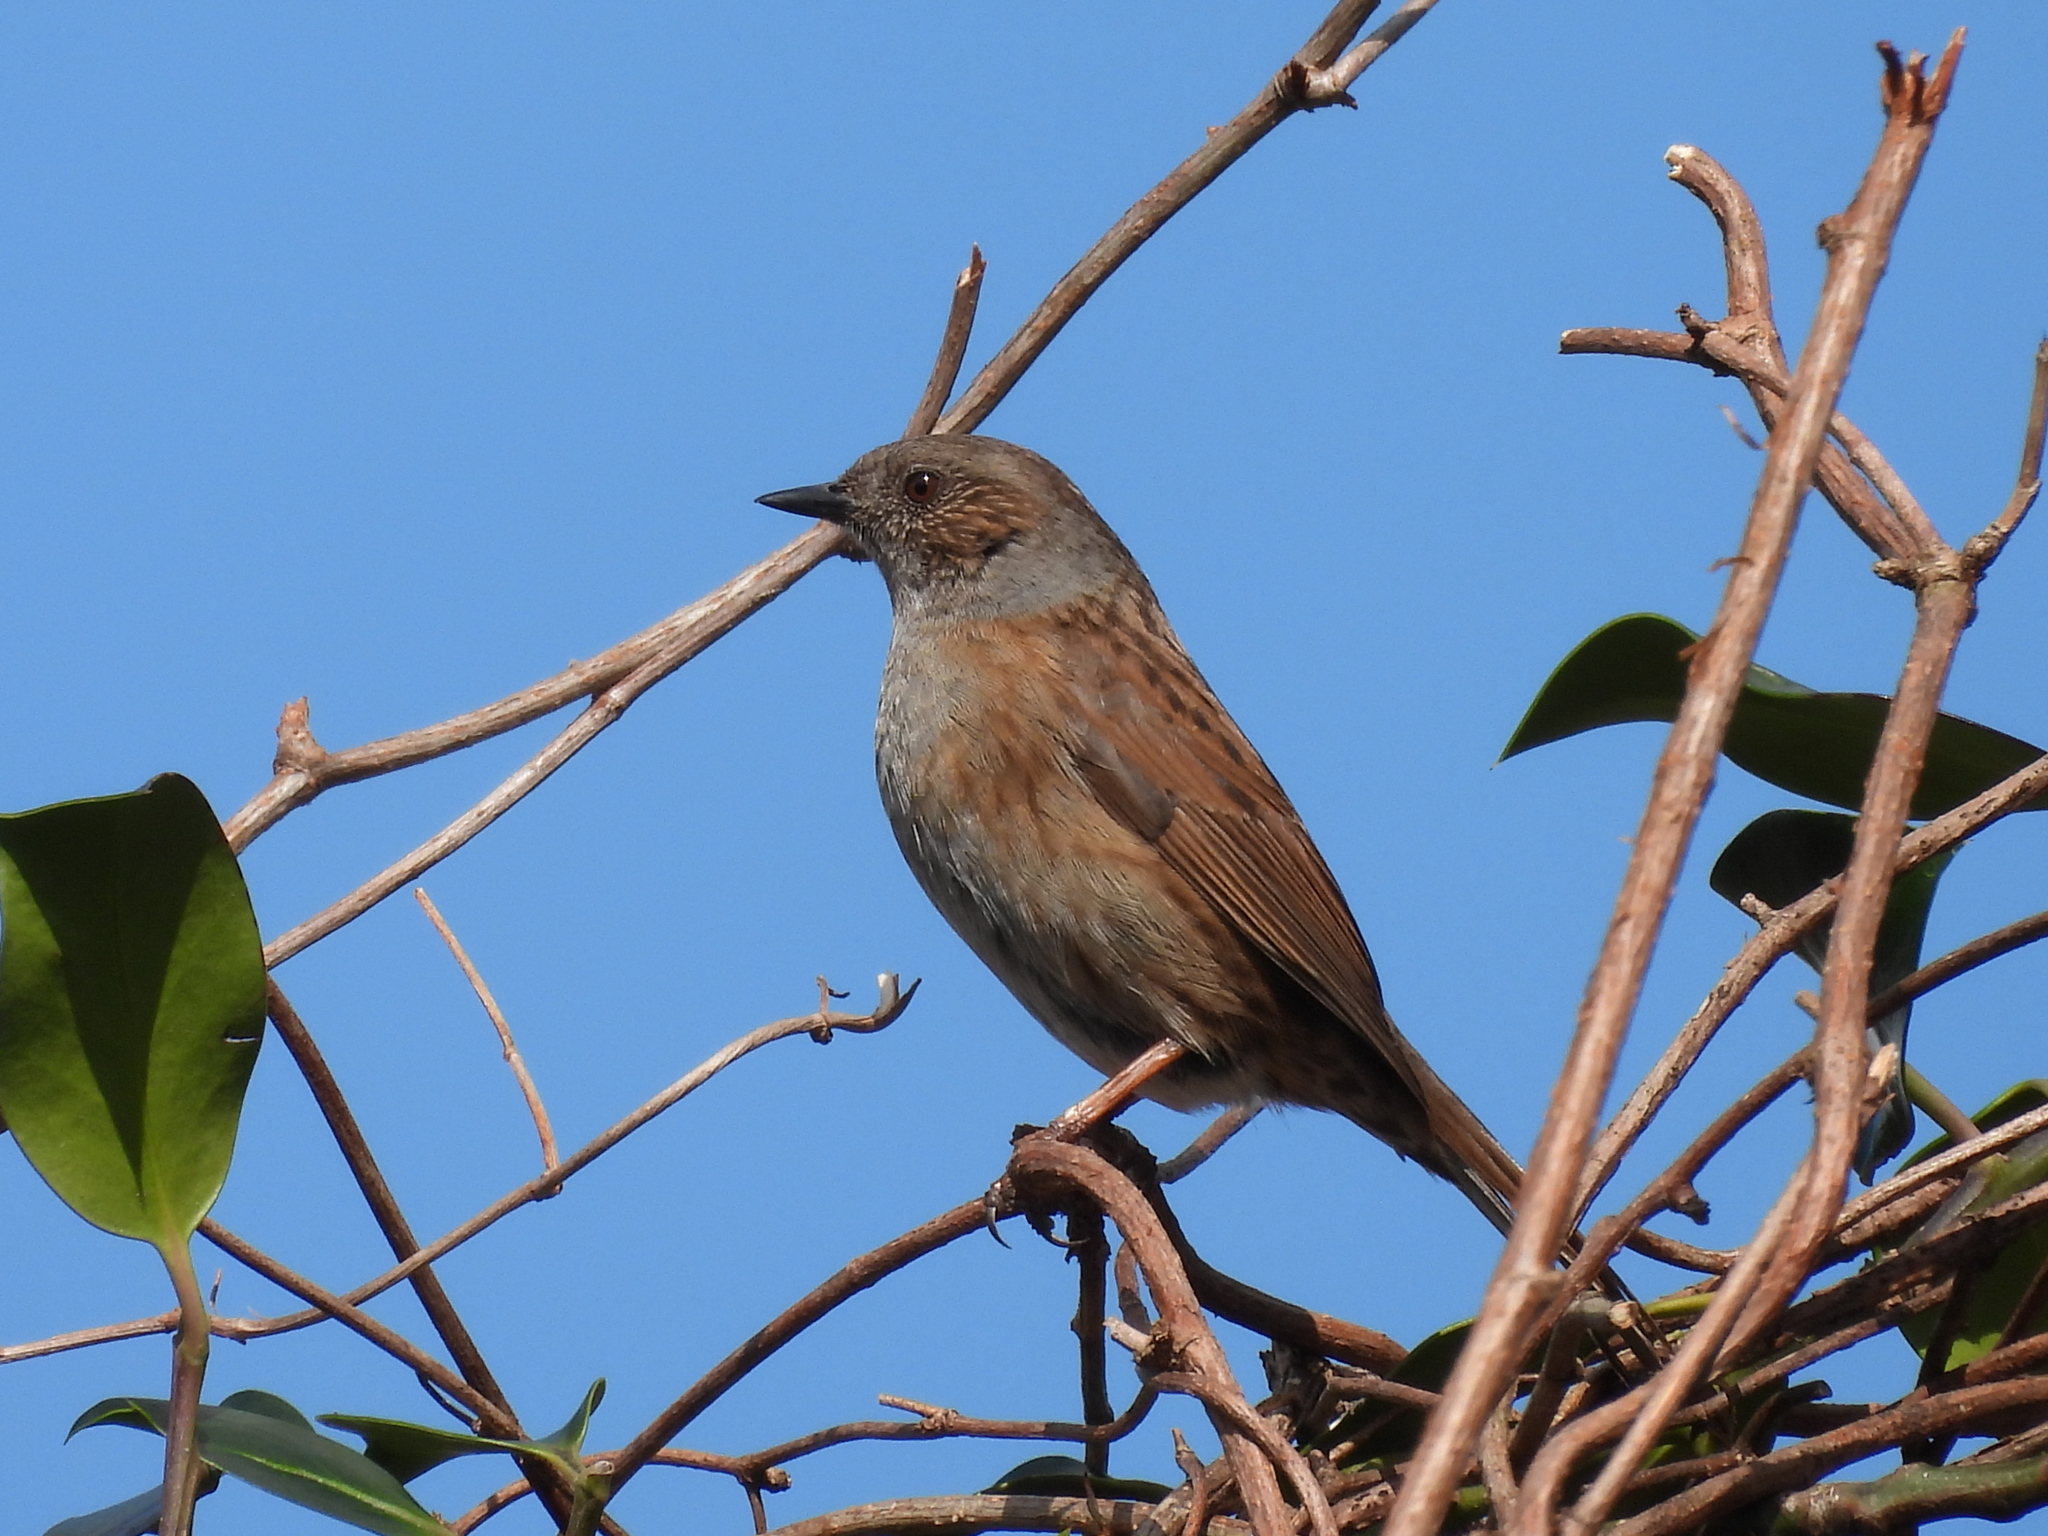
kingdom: Animalia
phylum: Chordata
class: Aves
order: Passeriformes
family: Prunellidae
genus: Prunella
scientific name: Prunella modularis
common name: Dunnock
